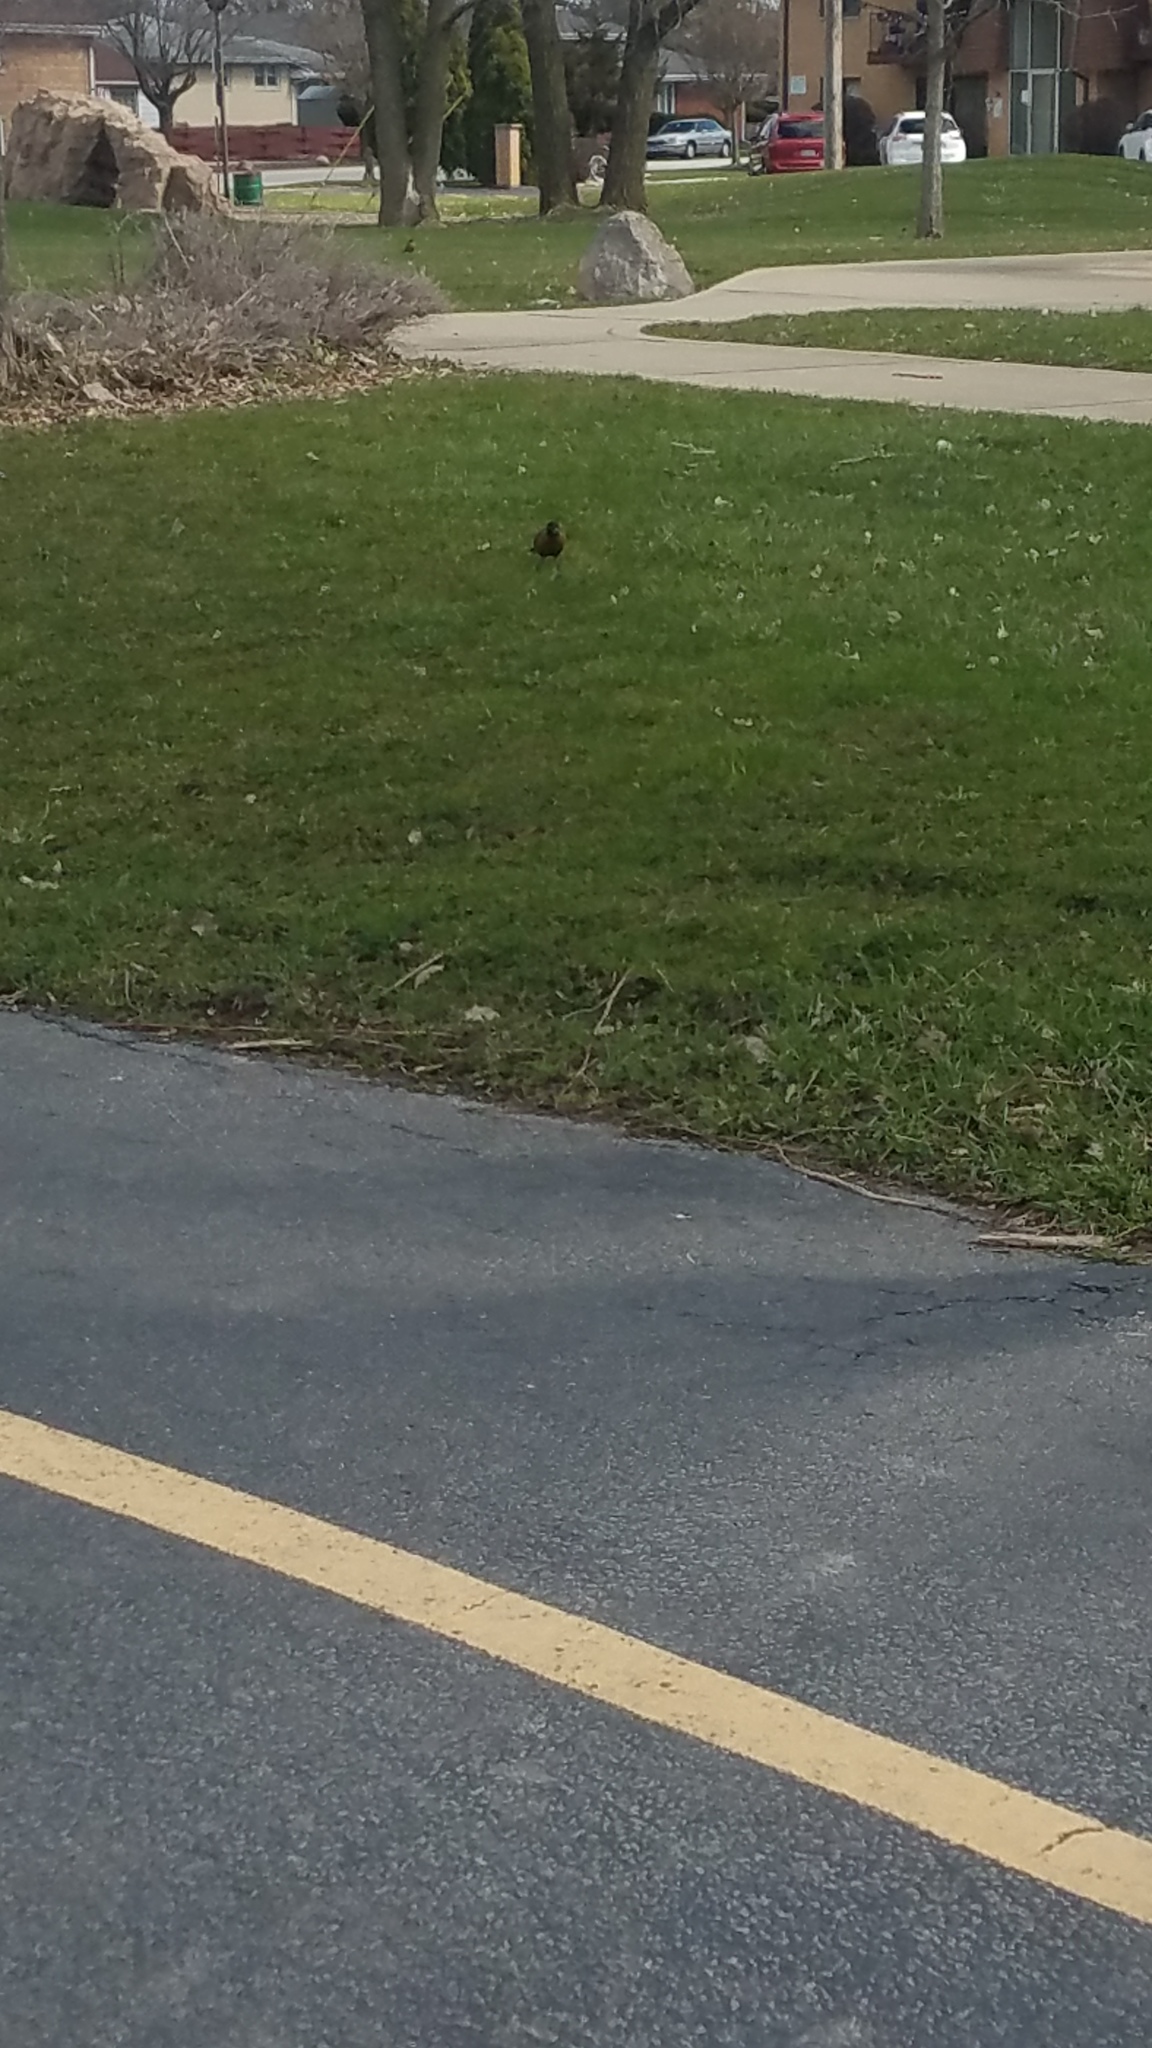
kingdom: Animalia
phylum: Chordata
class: Aves
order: Passeriformes
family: Turdidae
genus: Turdus
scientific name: Turdus migratorius
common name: American robin
